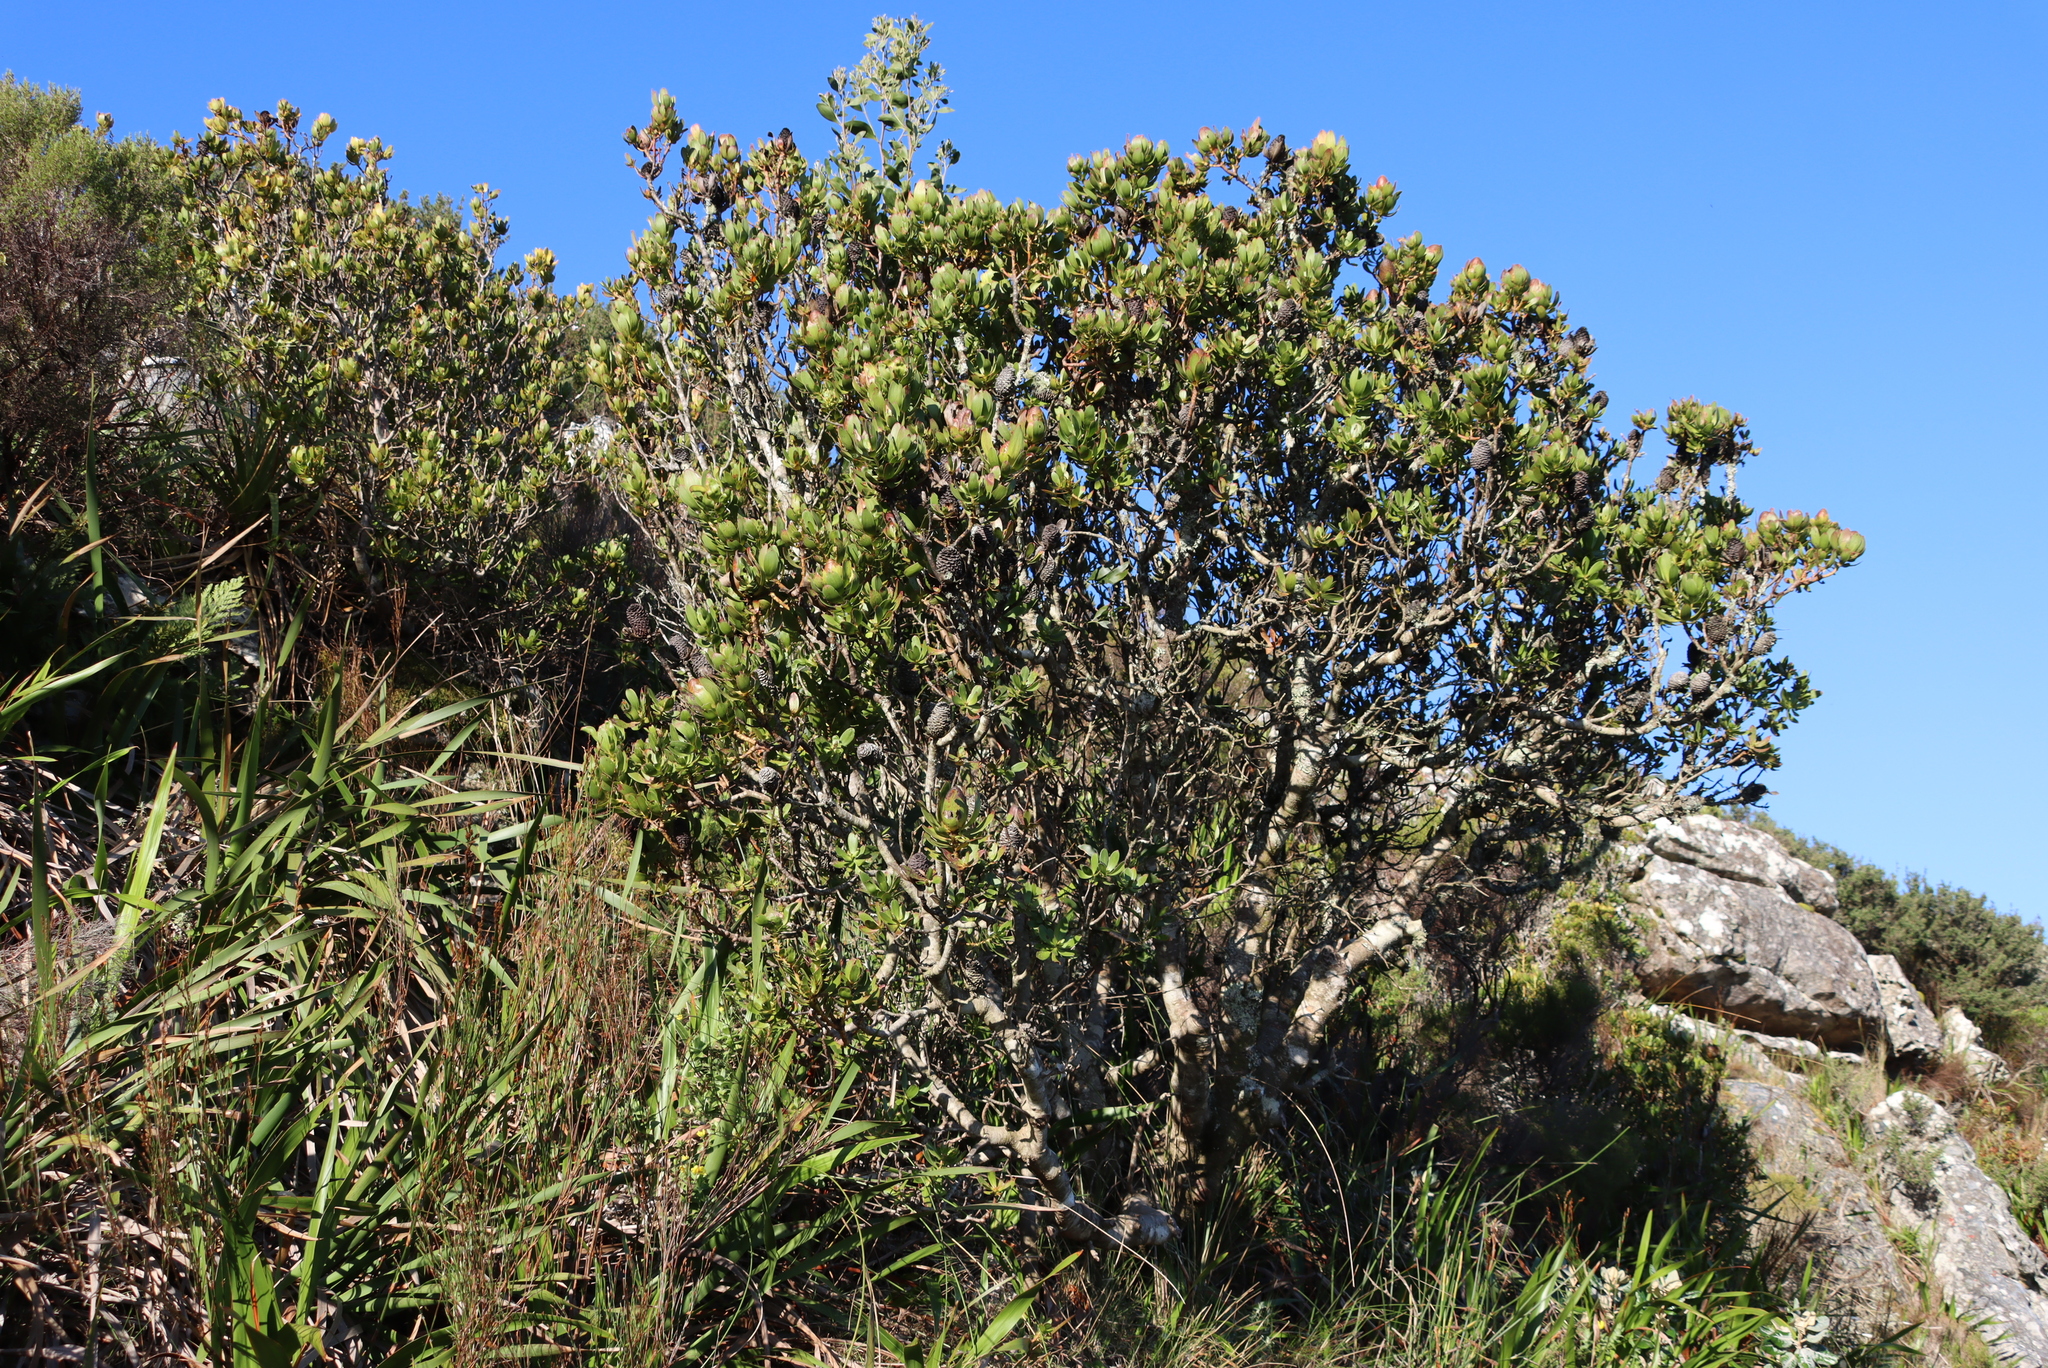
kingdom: Plantae
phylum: Tracheophyta
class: Magnoliopsida
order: Proteales
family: Proteaceae
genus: Leucadendron
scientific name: Leucadendron strobilinum
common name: Mountain rose
